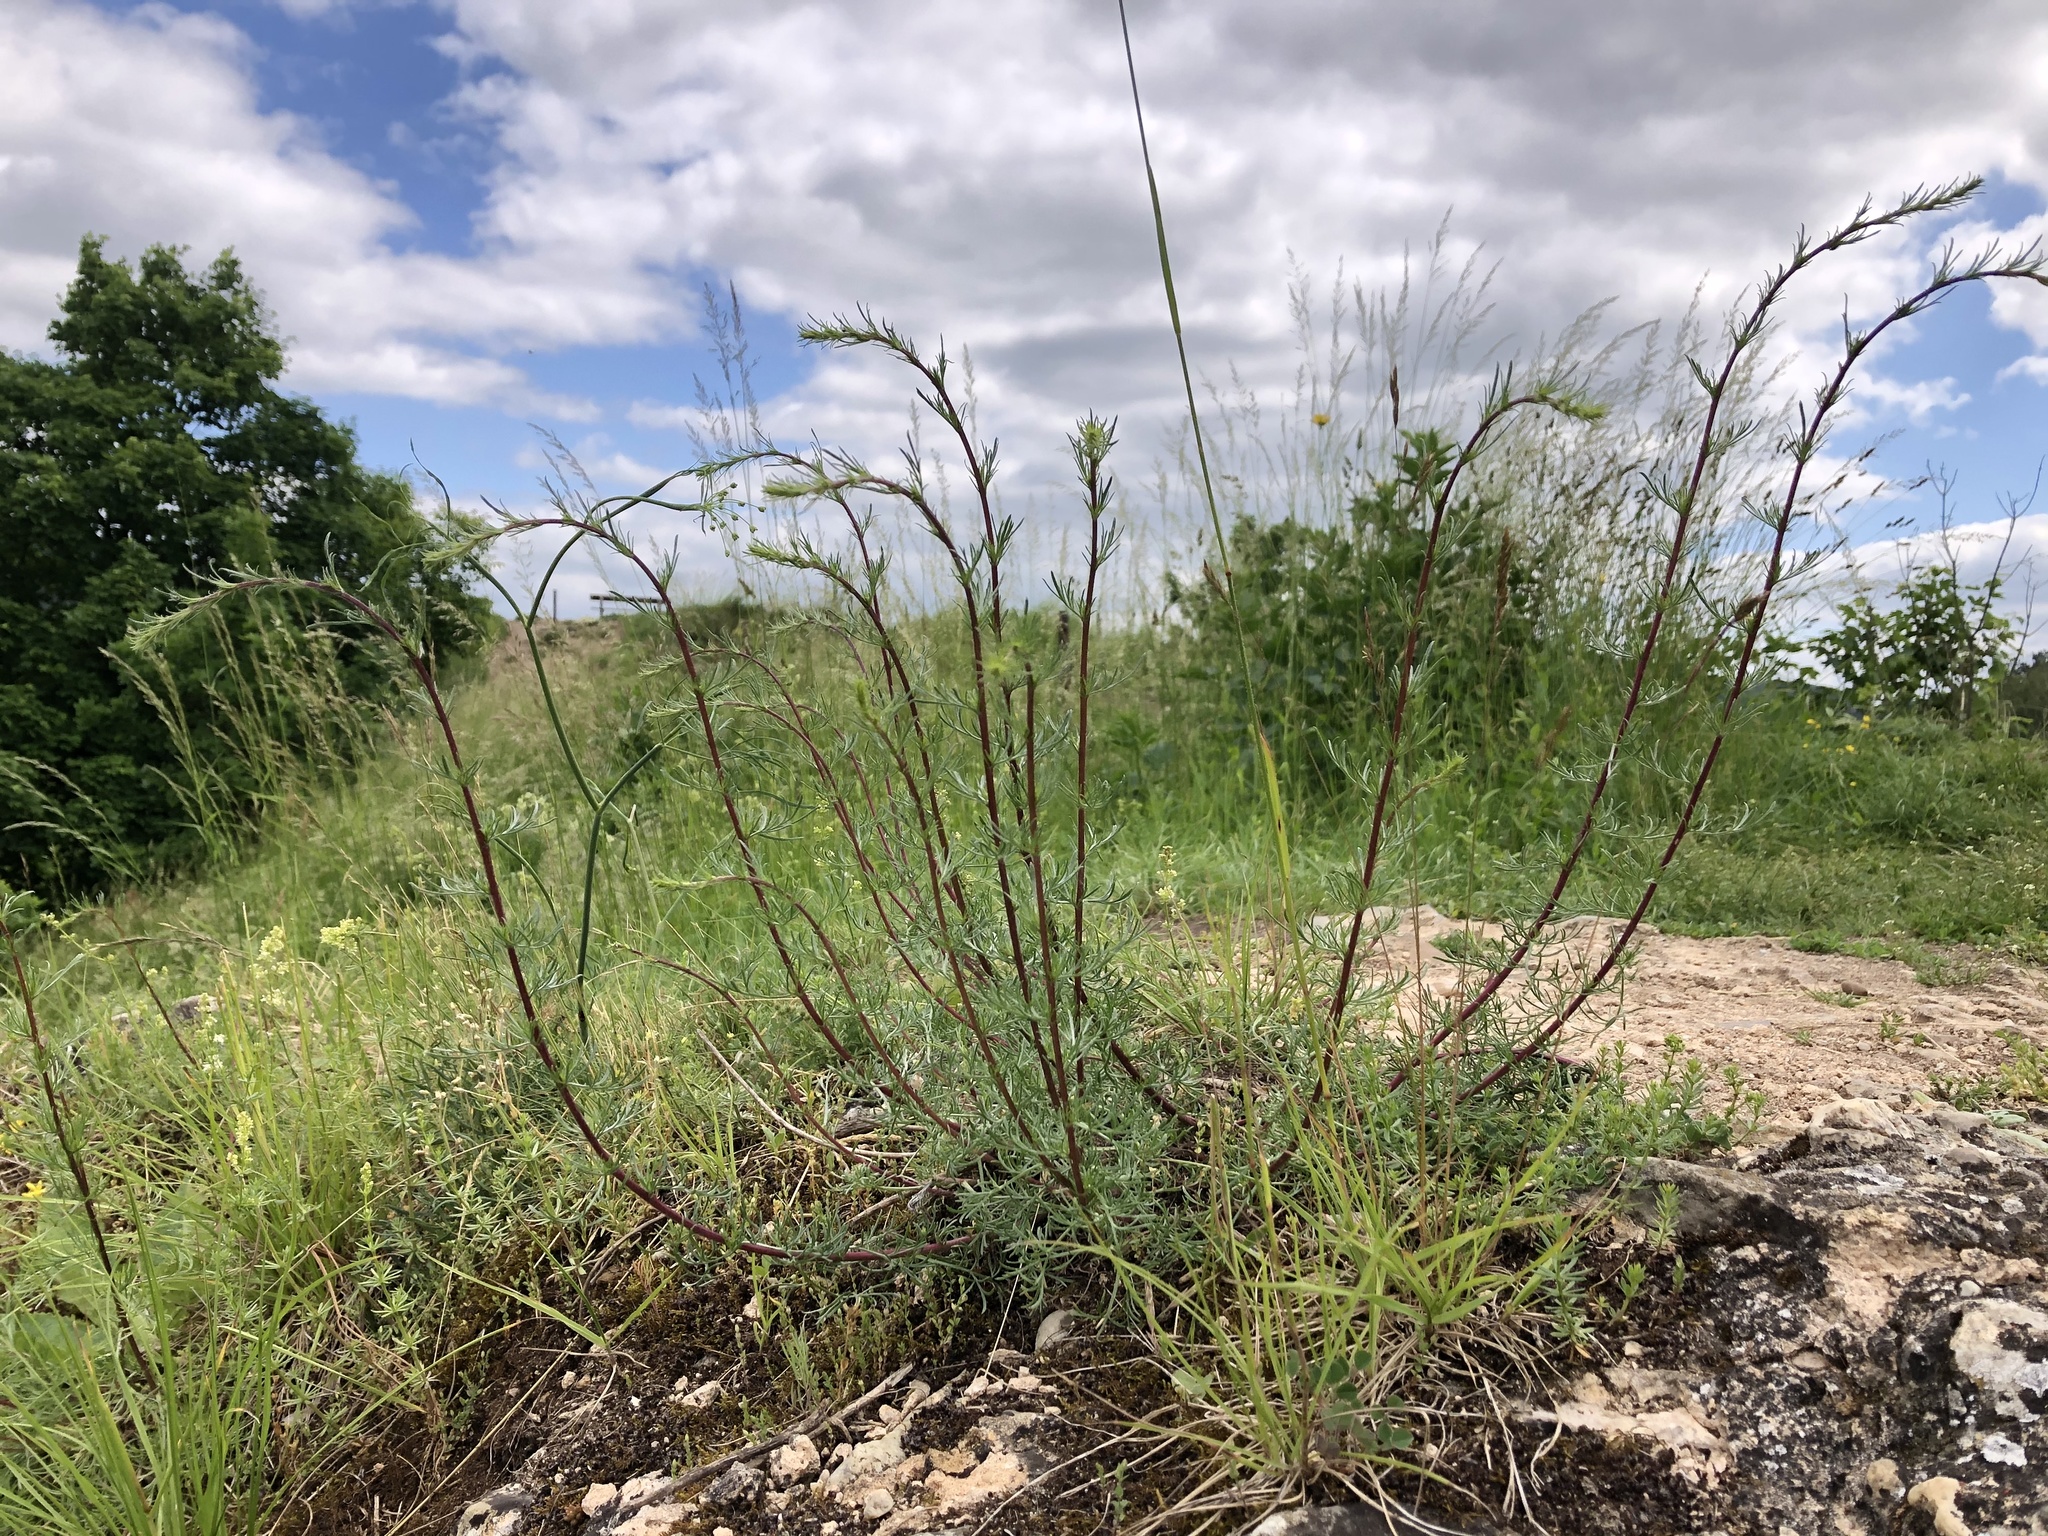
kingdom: Plantae
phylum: Tracheophyta
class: Magnoliopsida
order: Asterales
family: Asteraceae
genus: Artemisia
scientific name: Artemisia campestris
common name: Field wormwood
